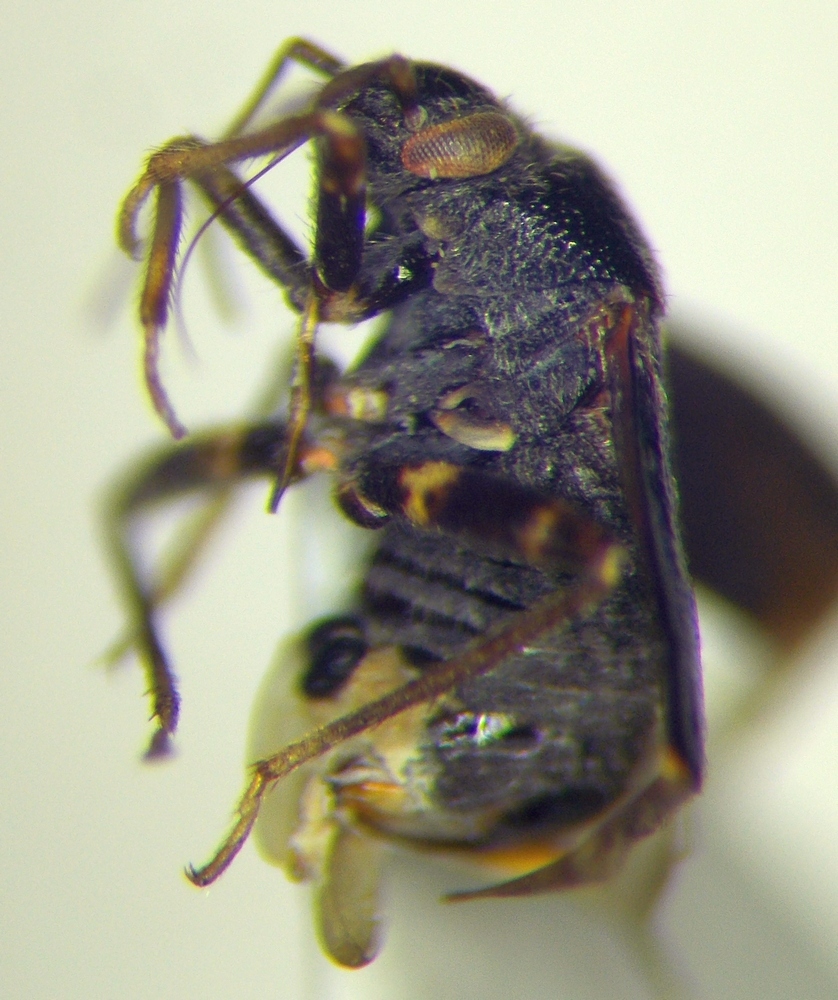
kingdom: Animalia
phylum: Arthropoda
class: Insecta
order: Hemiptera
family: Miridae
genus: Charagochilus
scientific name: Charagochilus gyllenhalii
